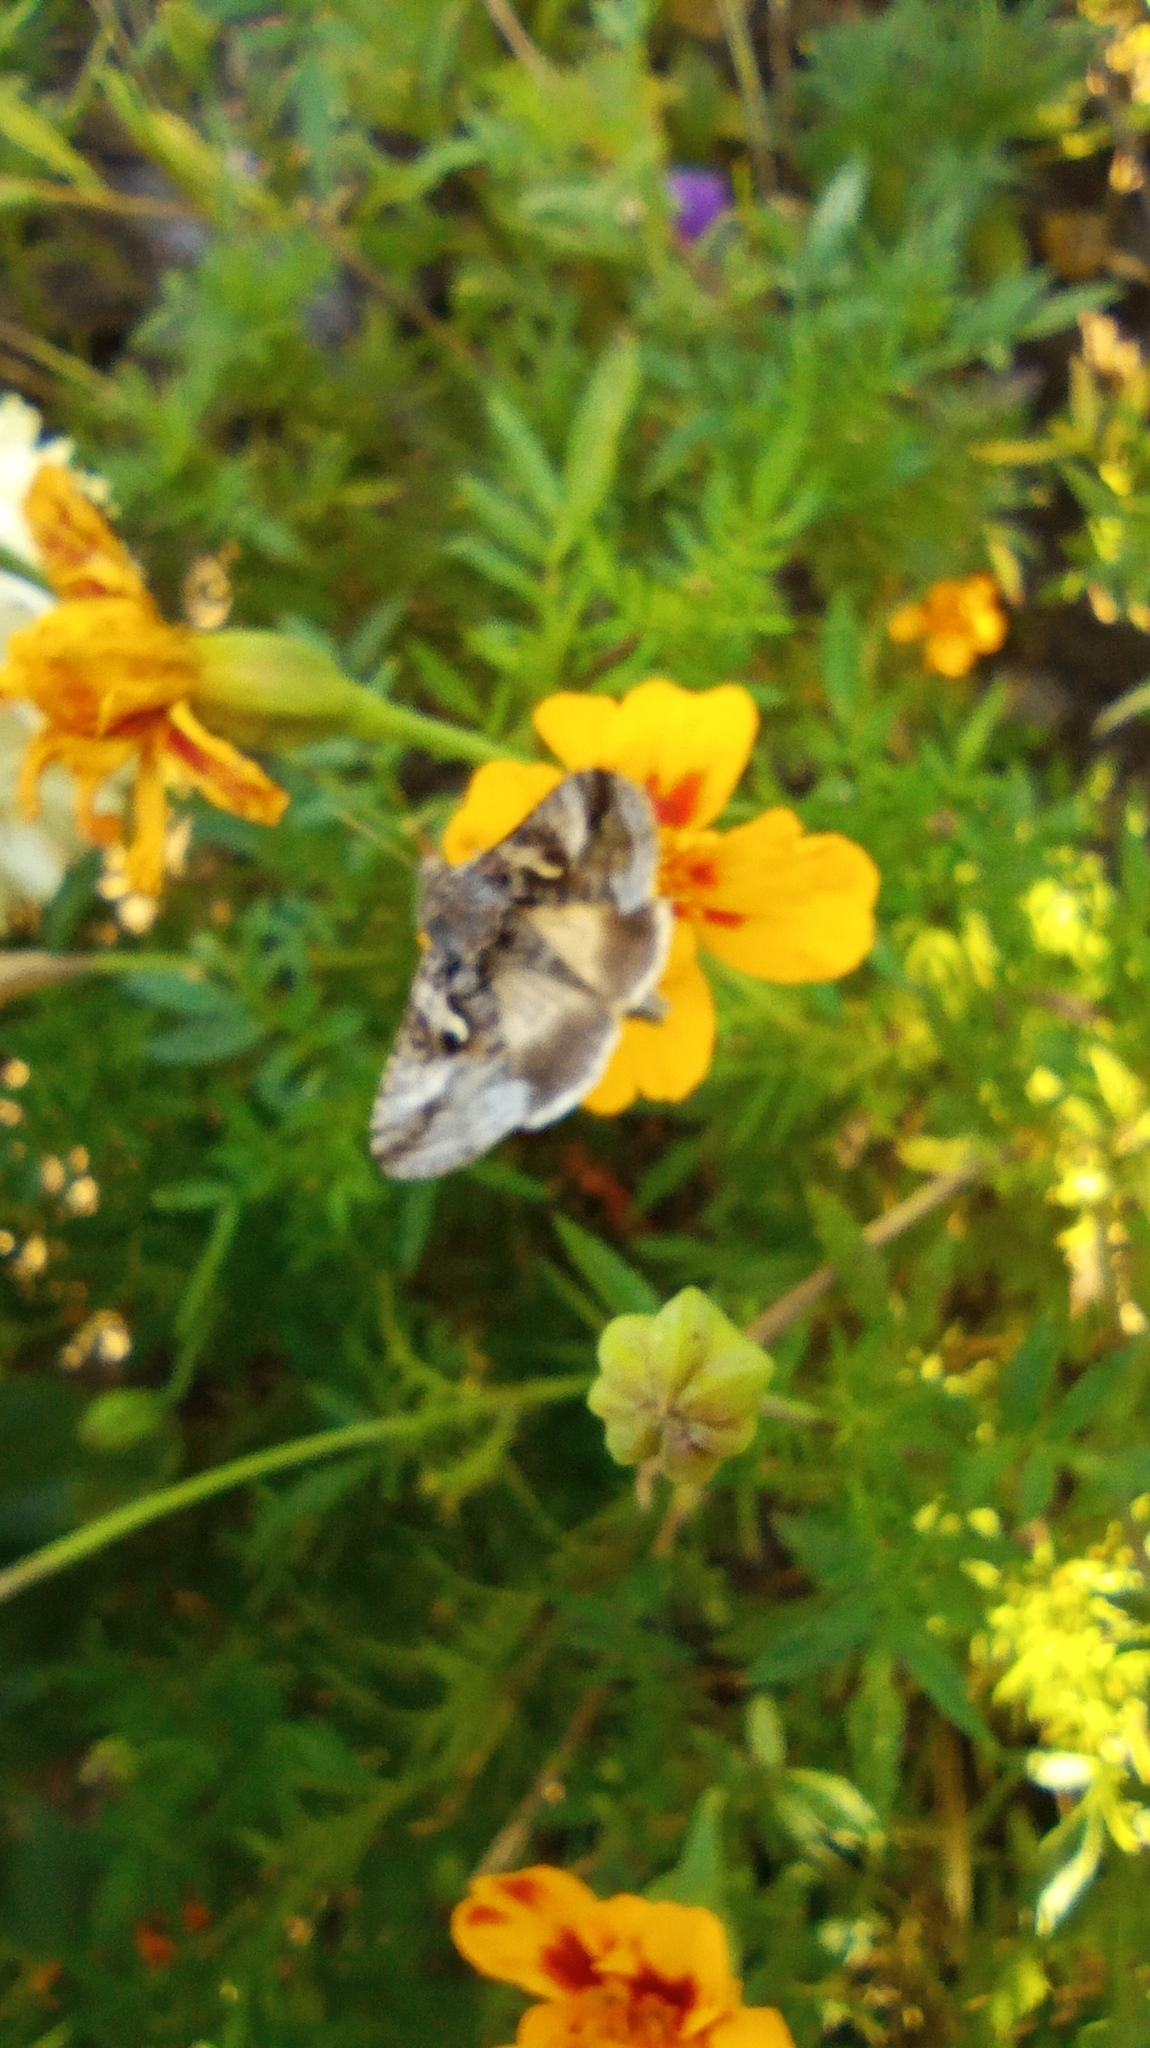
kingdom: Animalia
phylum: Arthropoda
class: Insecta
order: Lepidoptera
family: Noctuidae
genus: Autographa
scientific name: Autographa gamma
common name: Silver y
